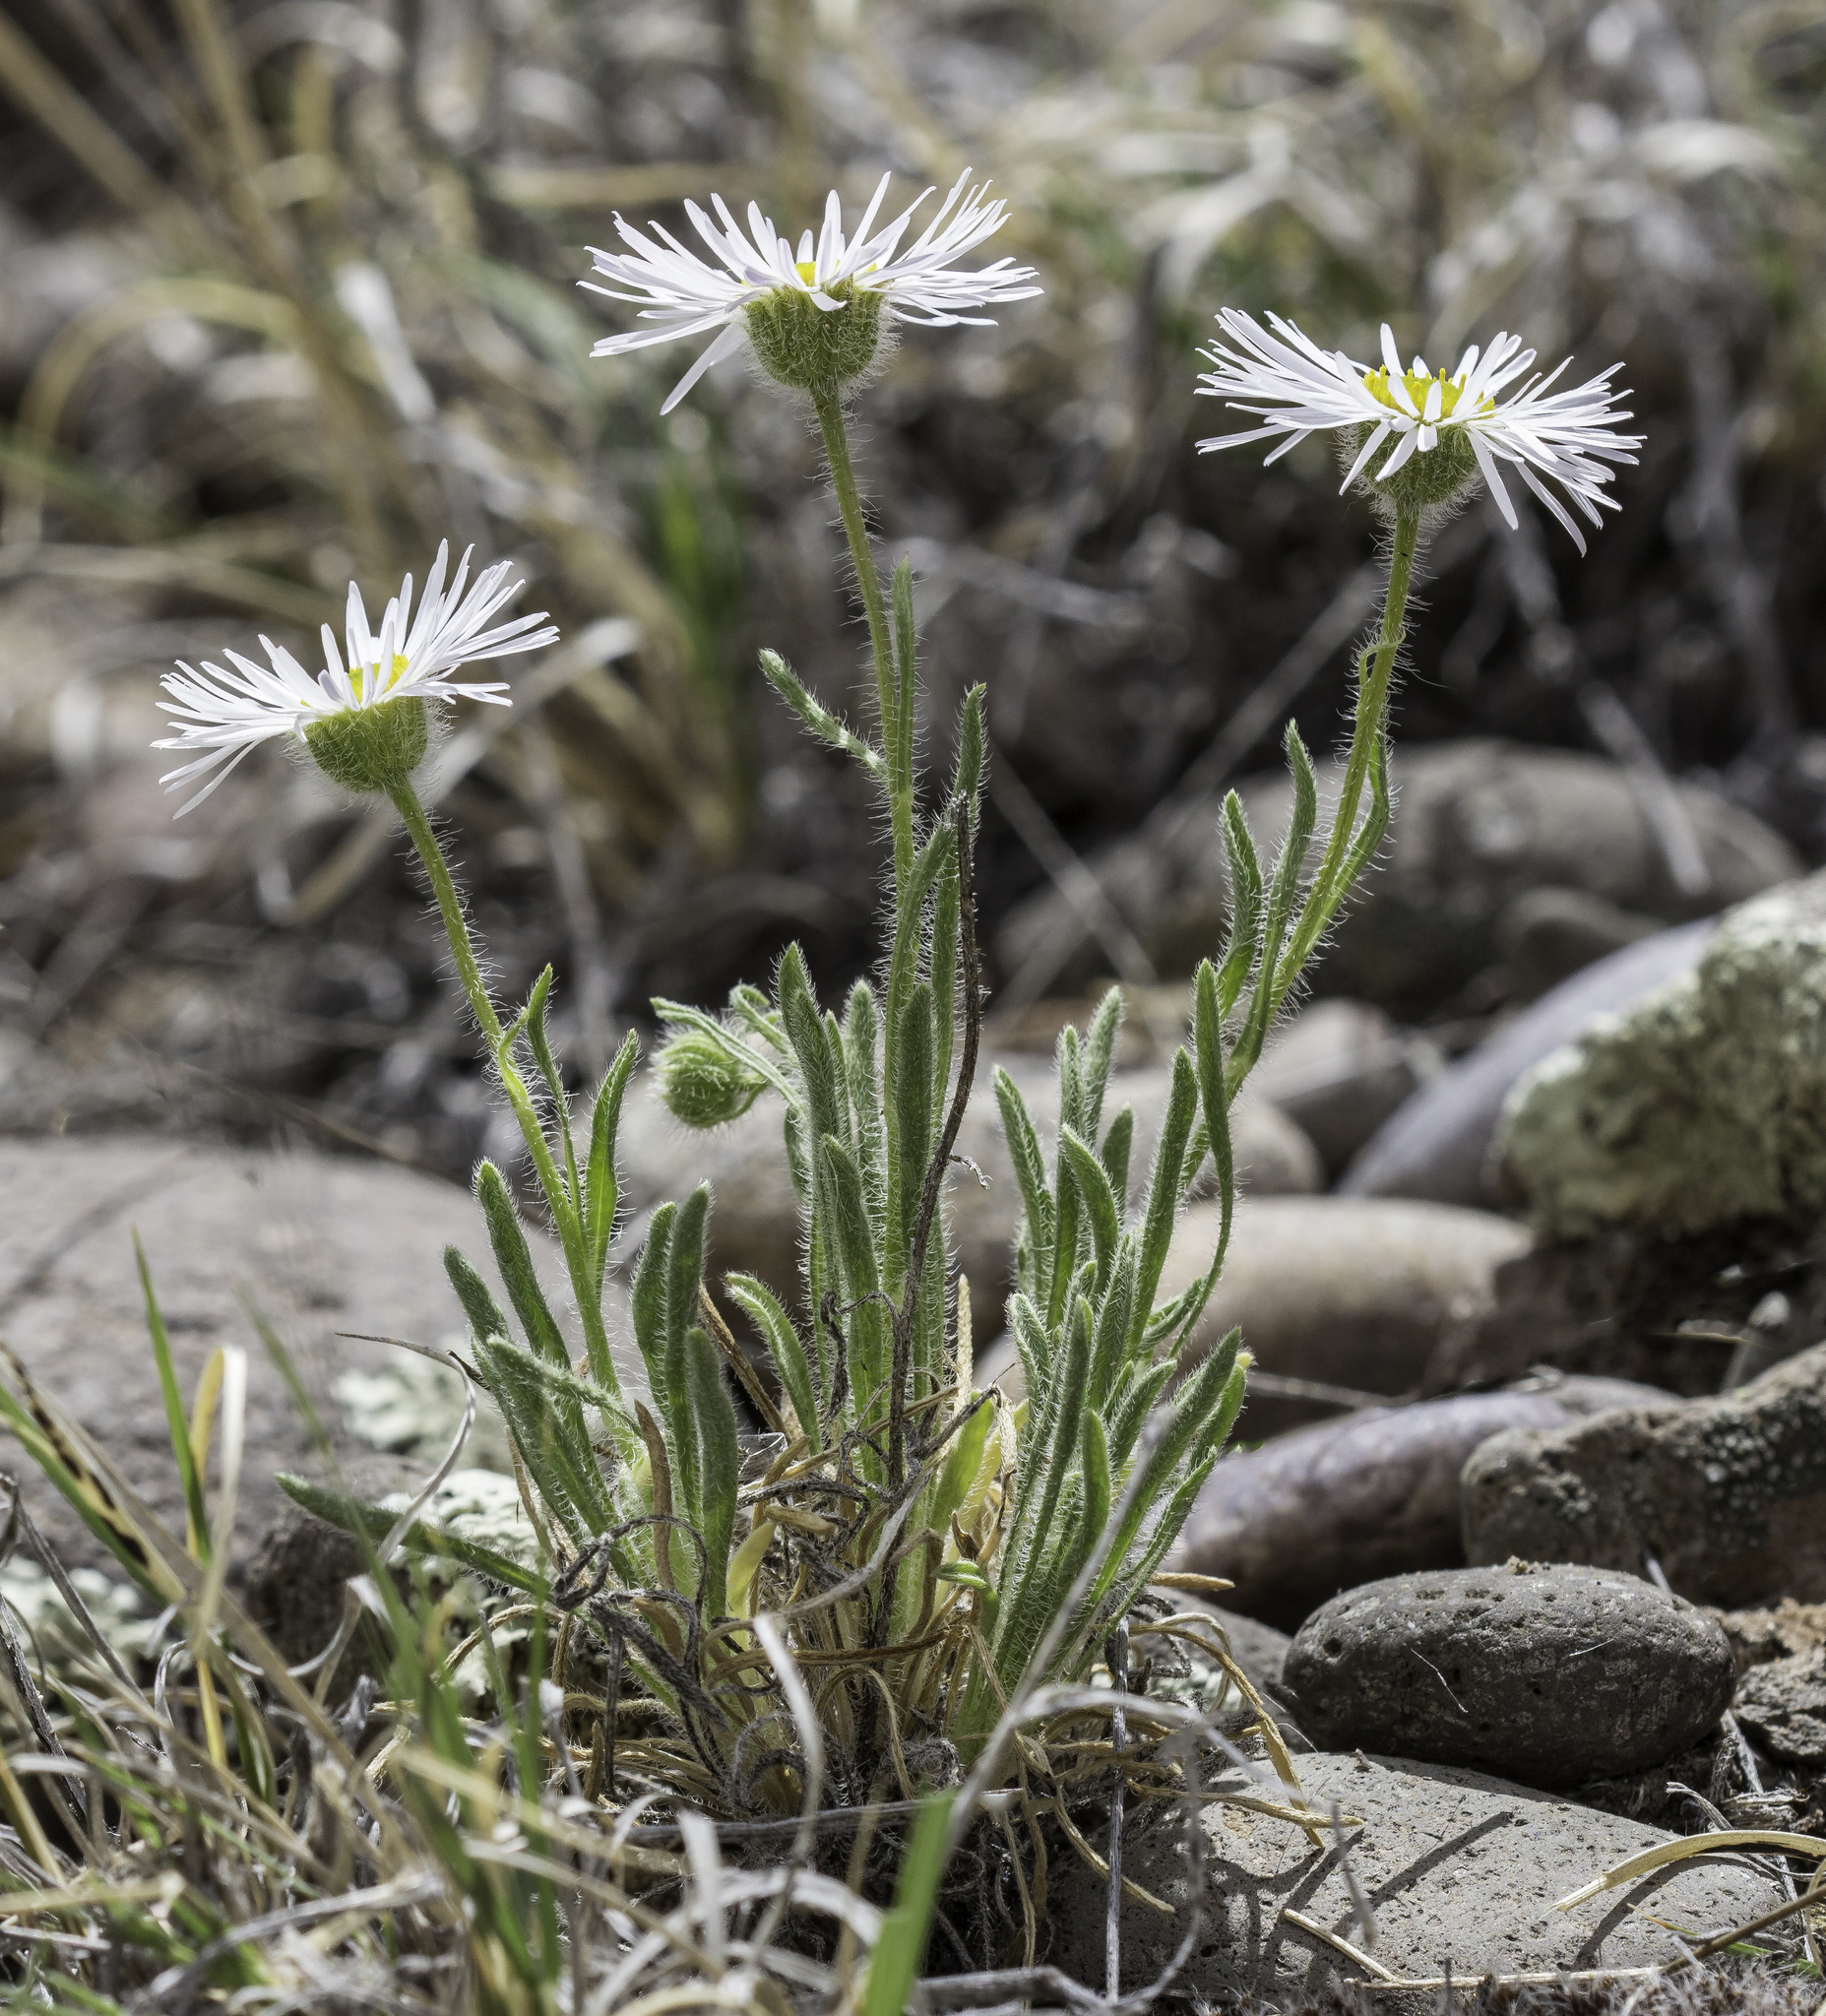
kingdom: Plantae
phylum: Tracheophyta
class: Magnoliopsida
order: Asterales
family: Asteraceae
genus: Erigeron
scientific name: Erigeron concinnus
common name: Navajo fleabane
